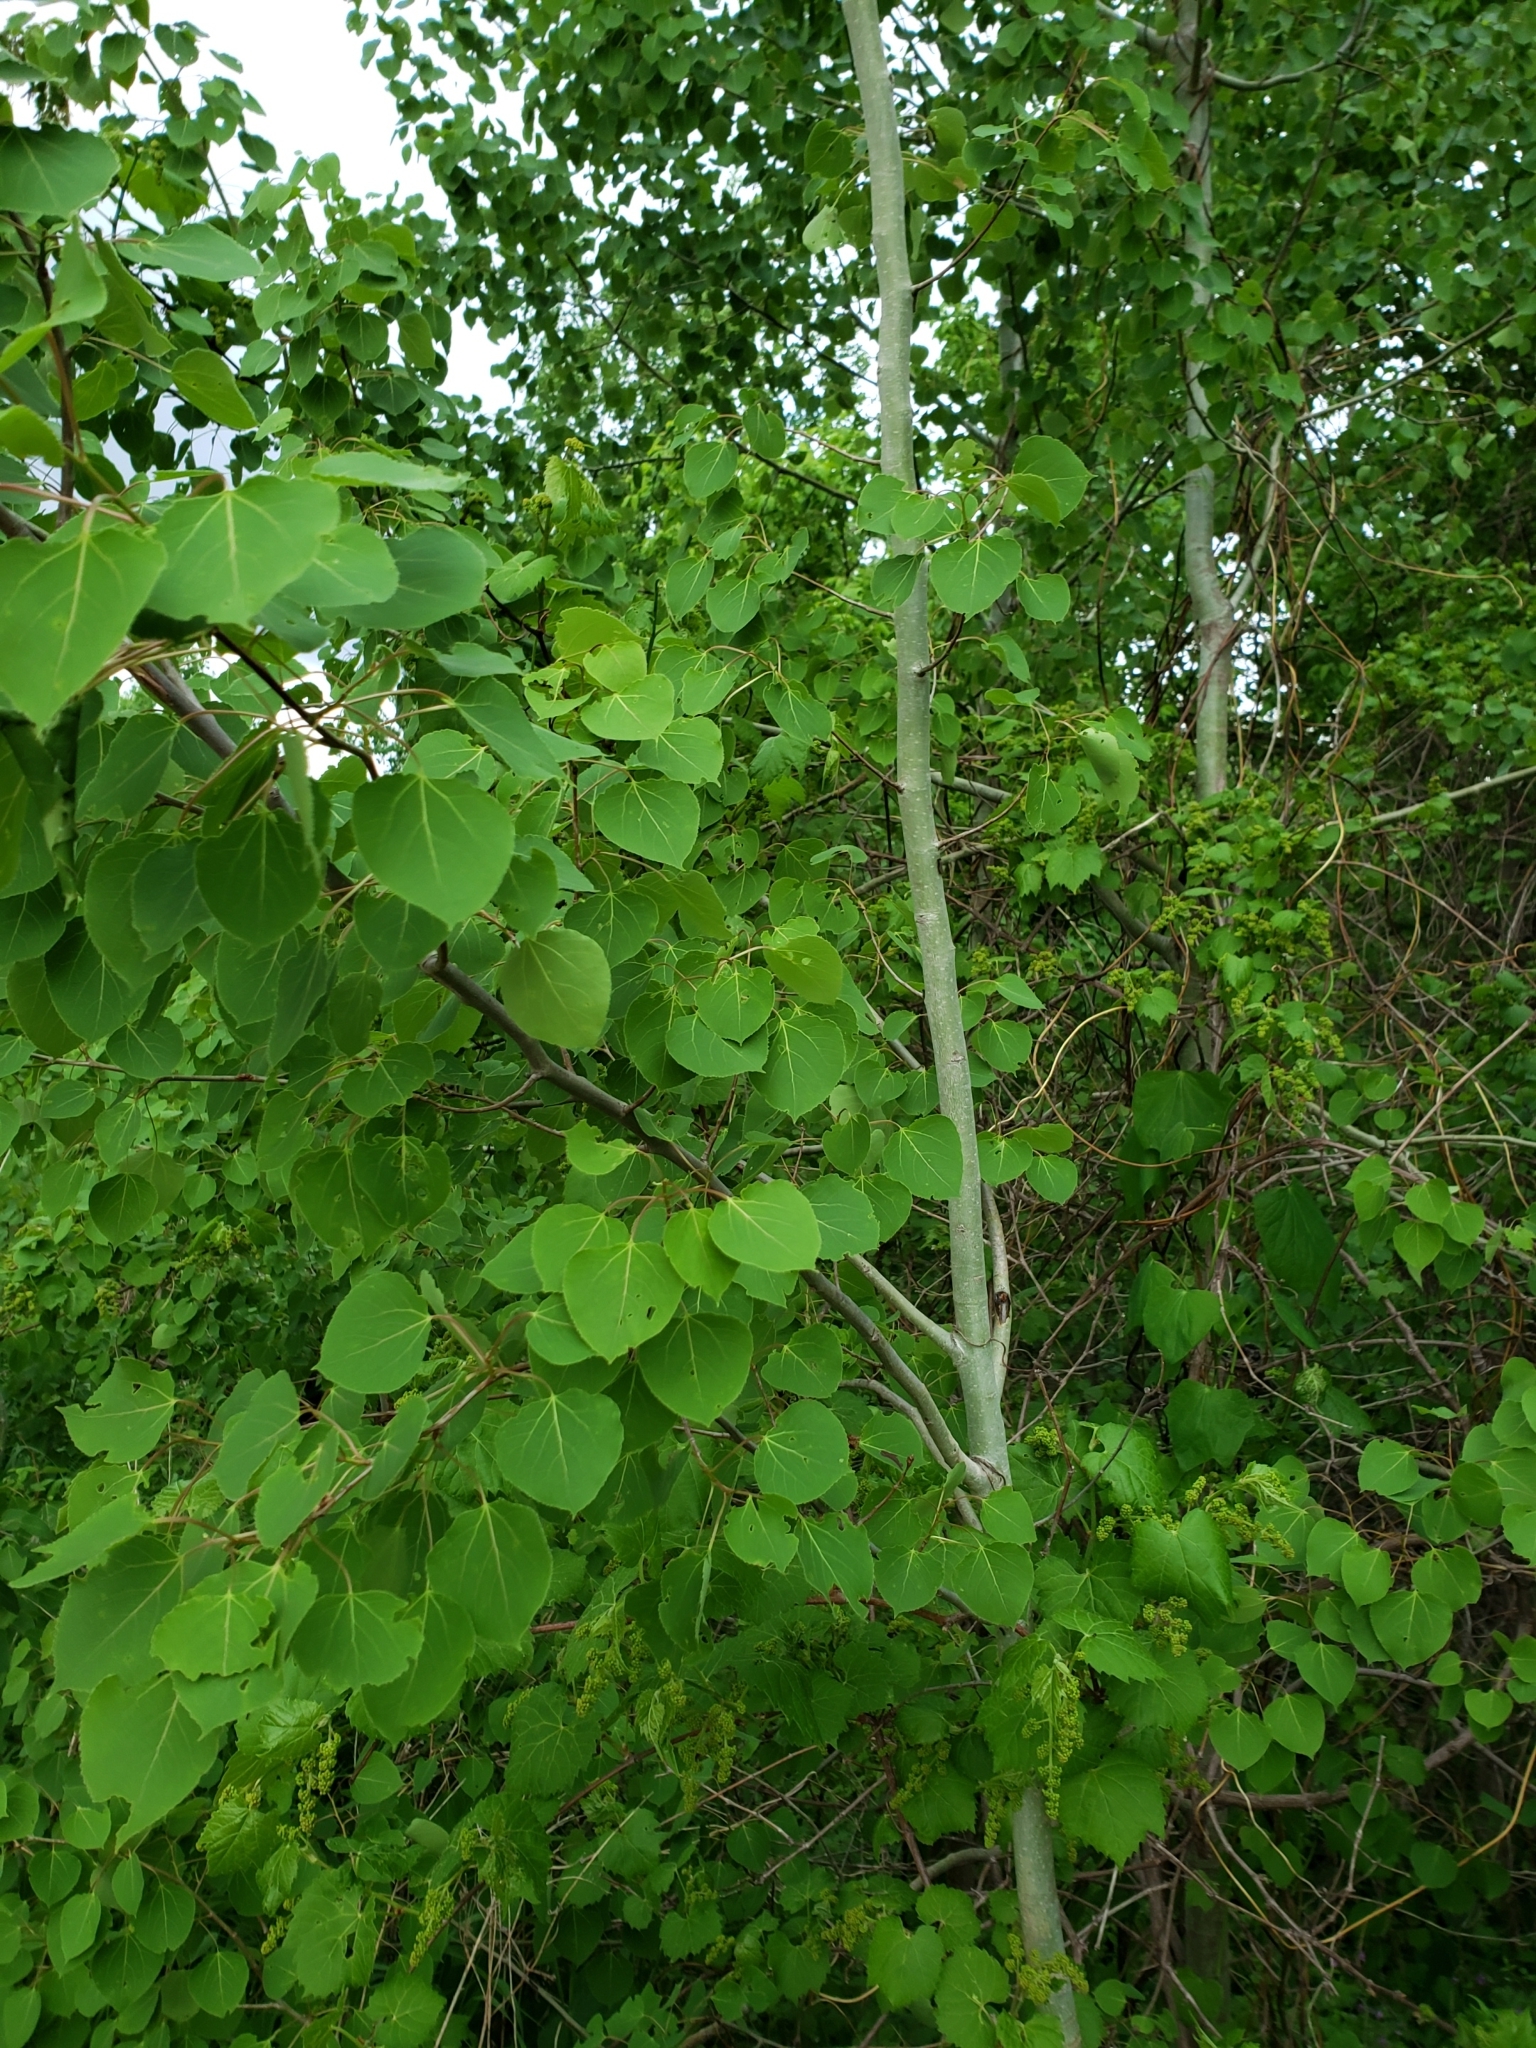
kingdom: Plantae
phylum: Tracheophyta
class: Magnoliopsida
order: Malpighiales
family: Salicaceae
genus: Populus
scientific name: Populus tremuloides
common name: Quaking aspen
